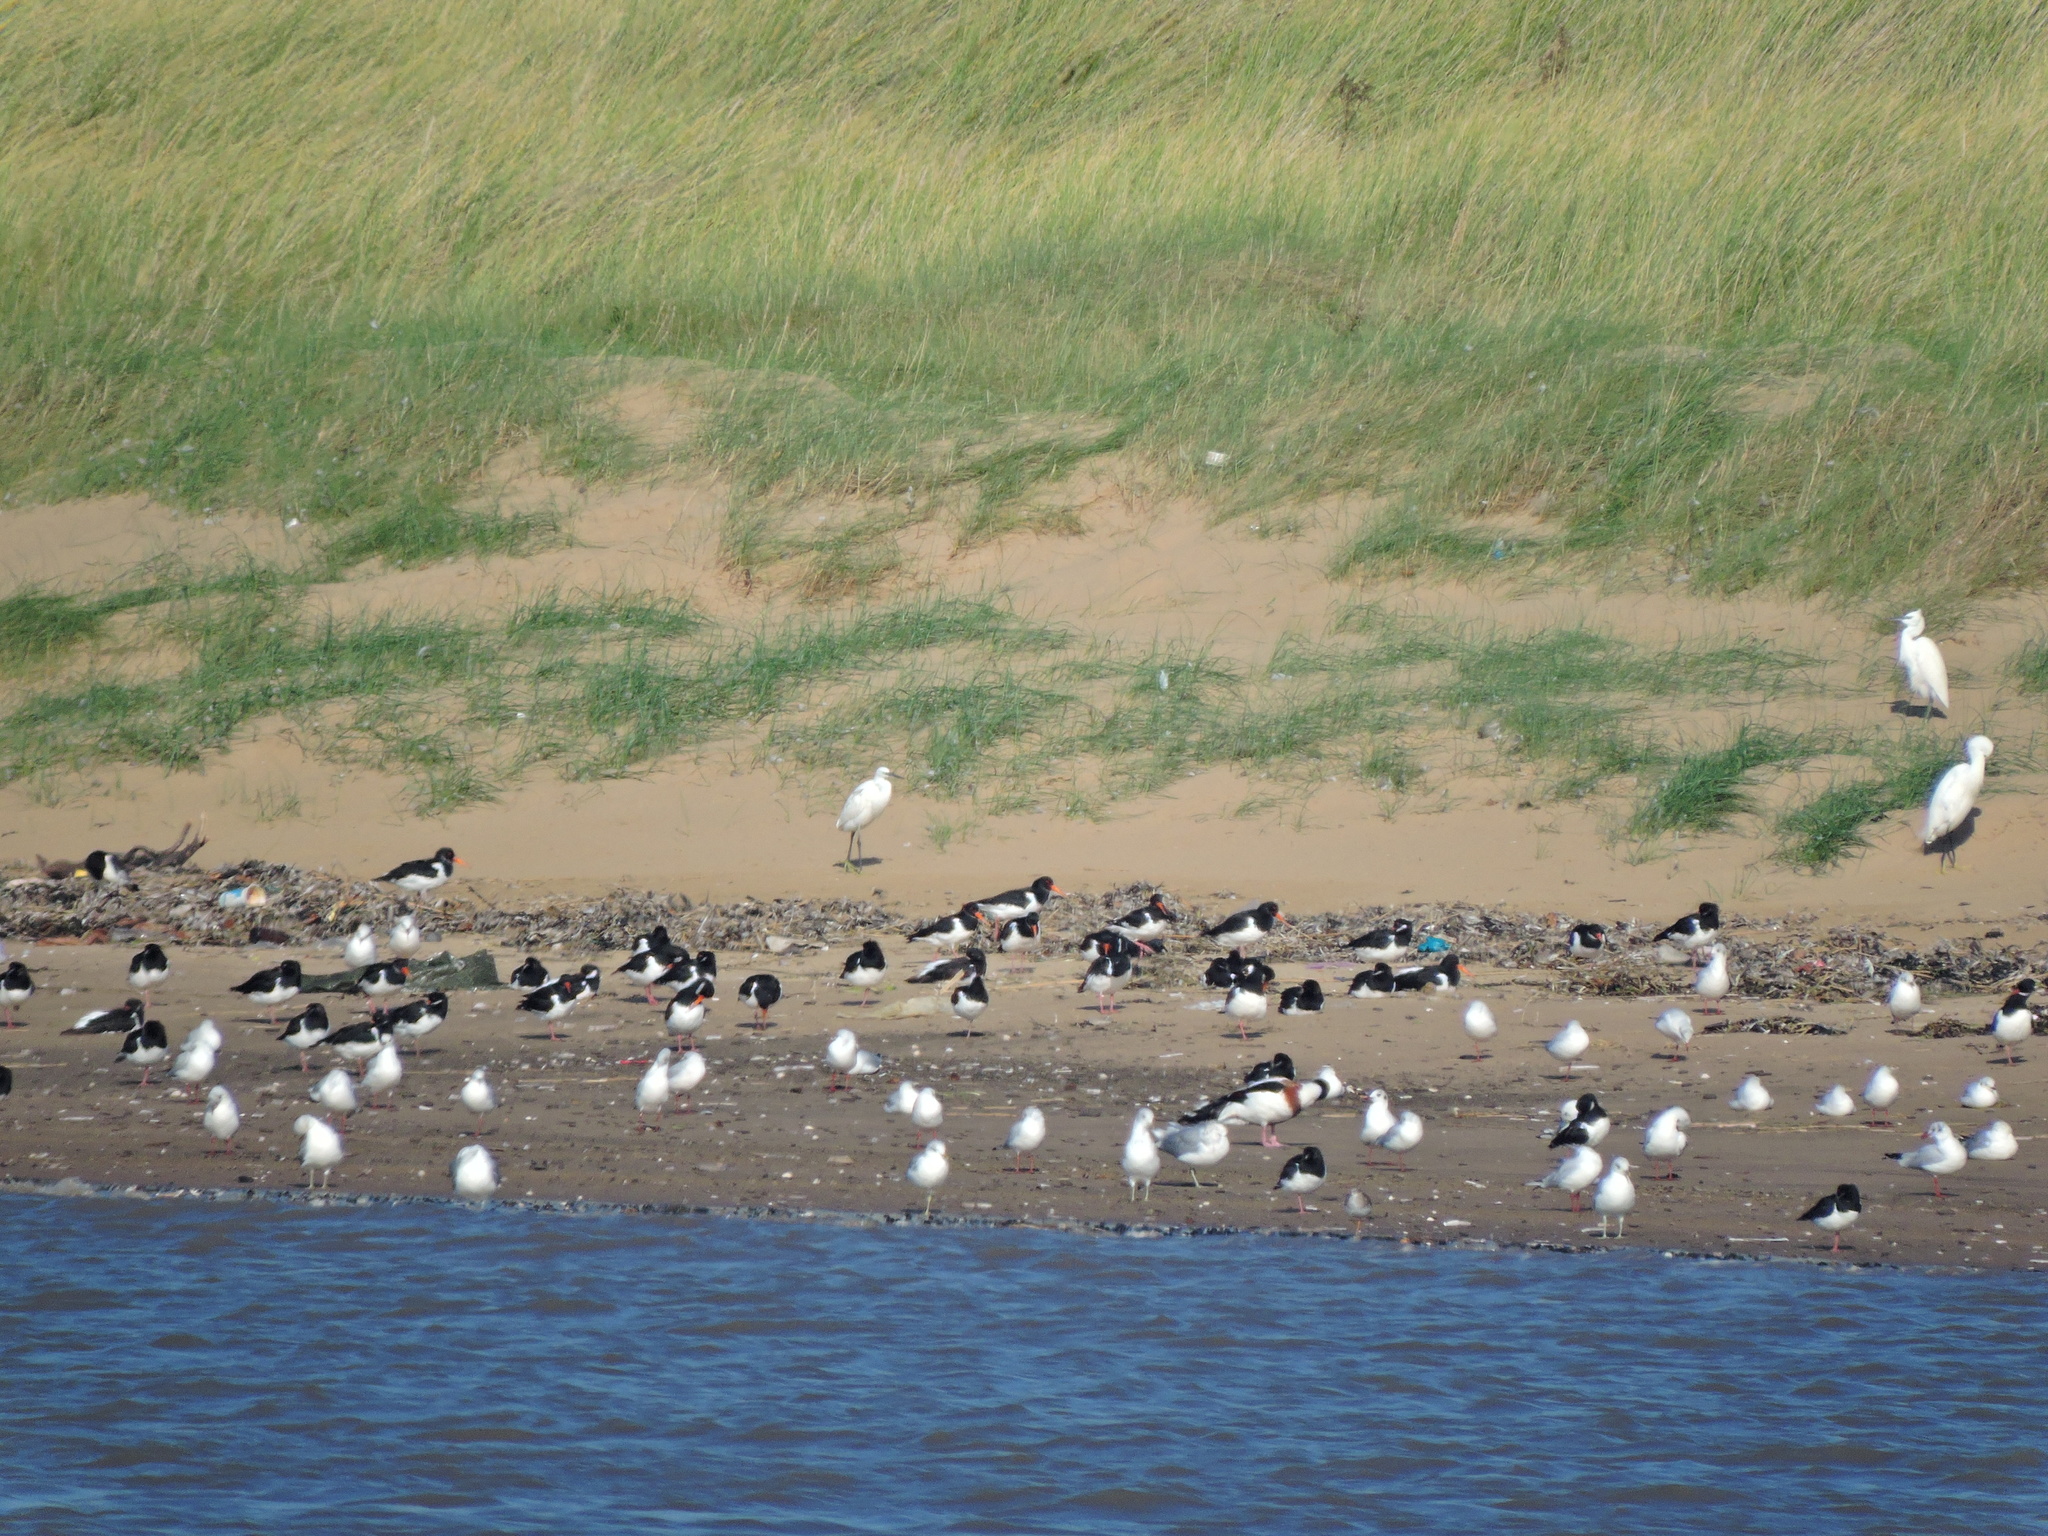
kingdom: Animalia
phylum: Chordata
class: Aves
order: Pelecaniformes
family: Ardeidae
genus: Egretta
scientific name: Egretta garzetta
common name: Little egret
